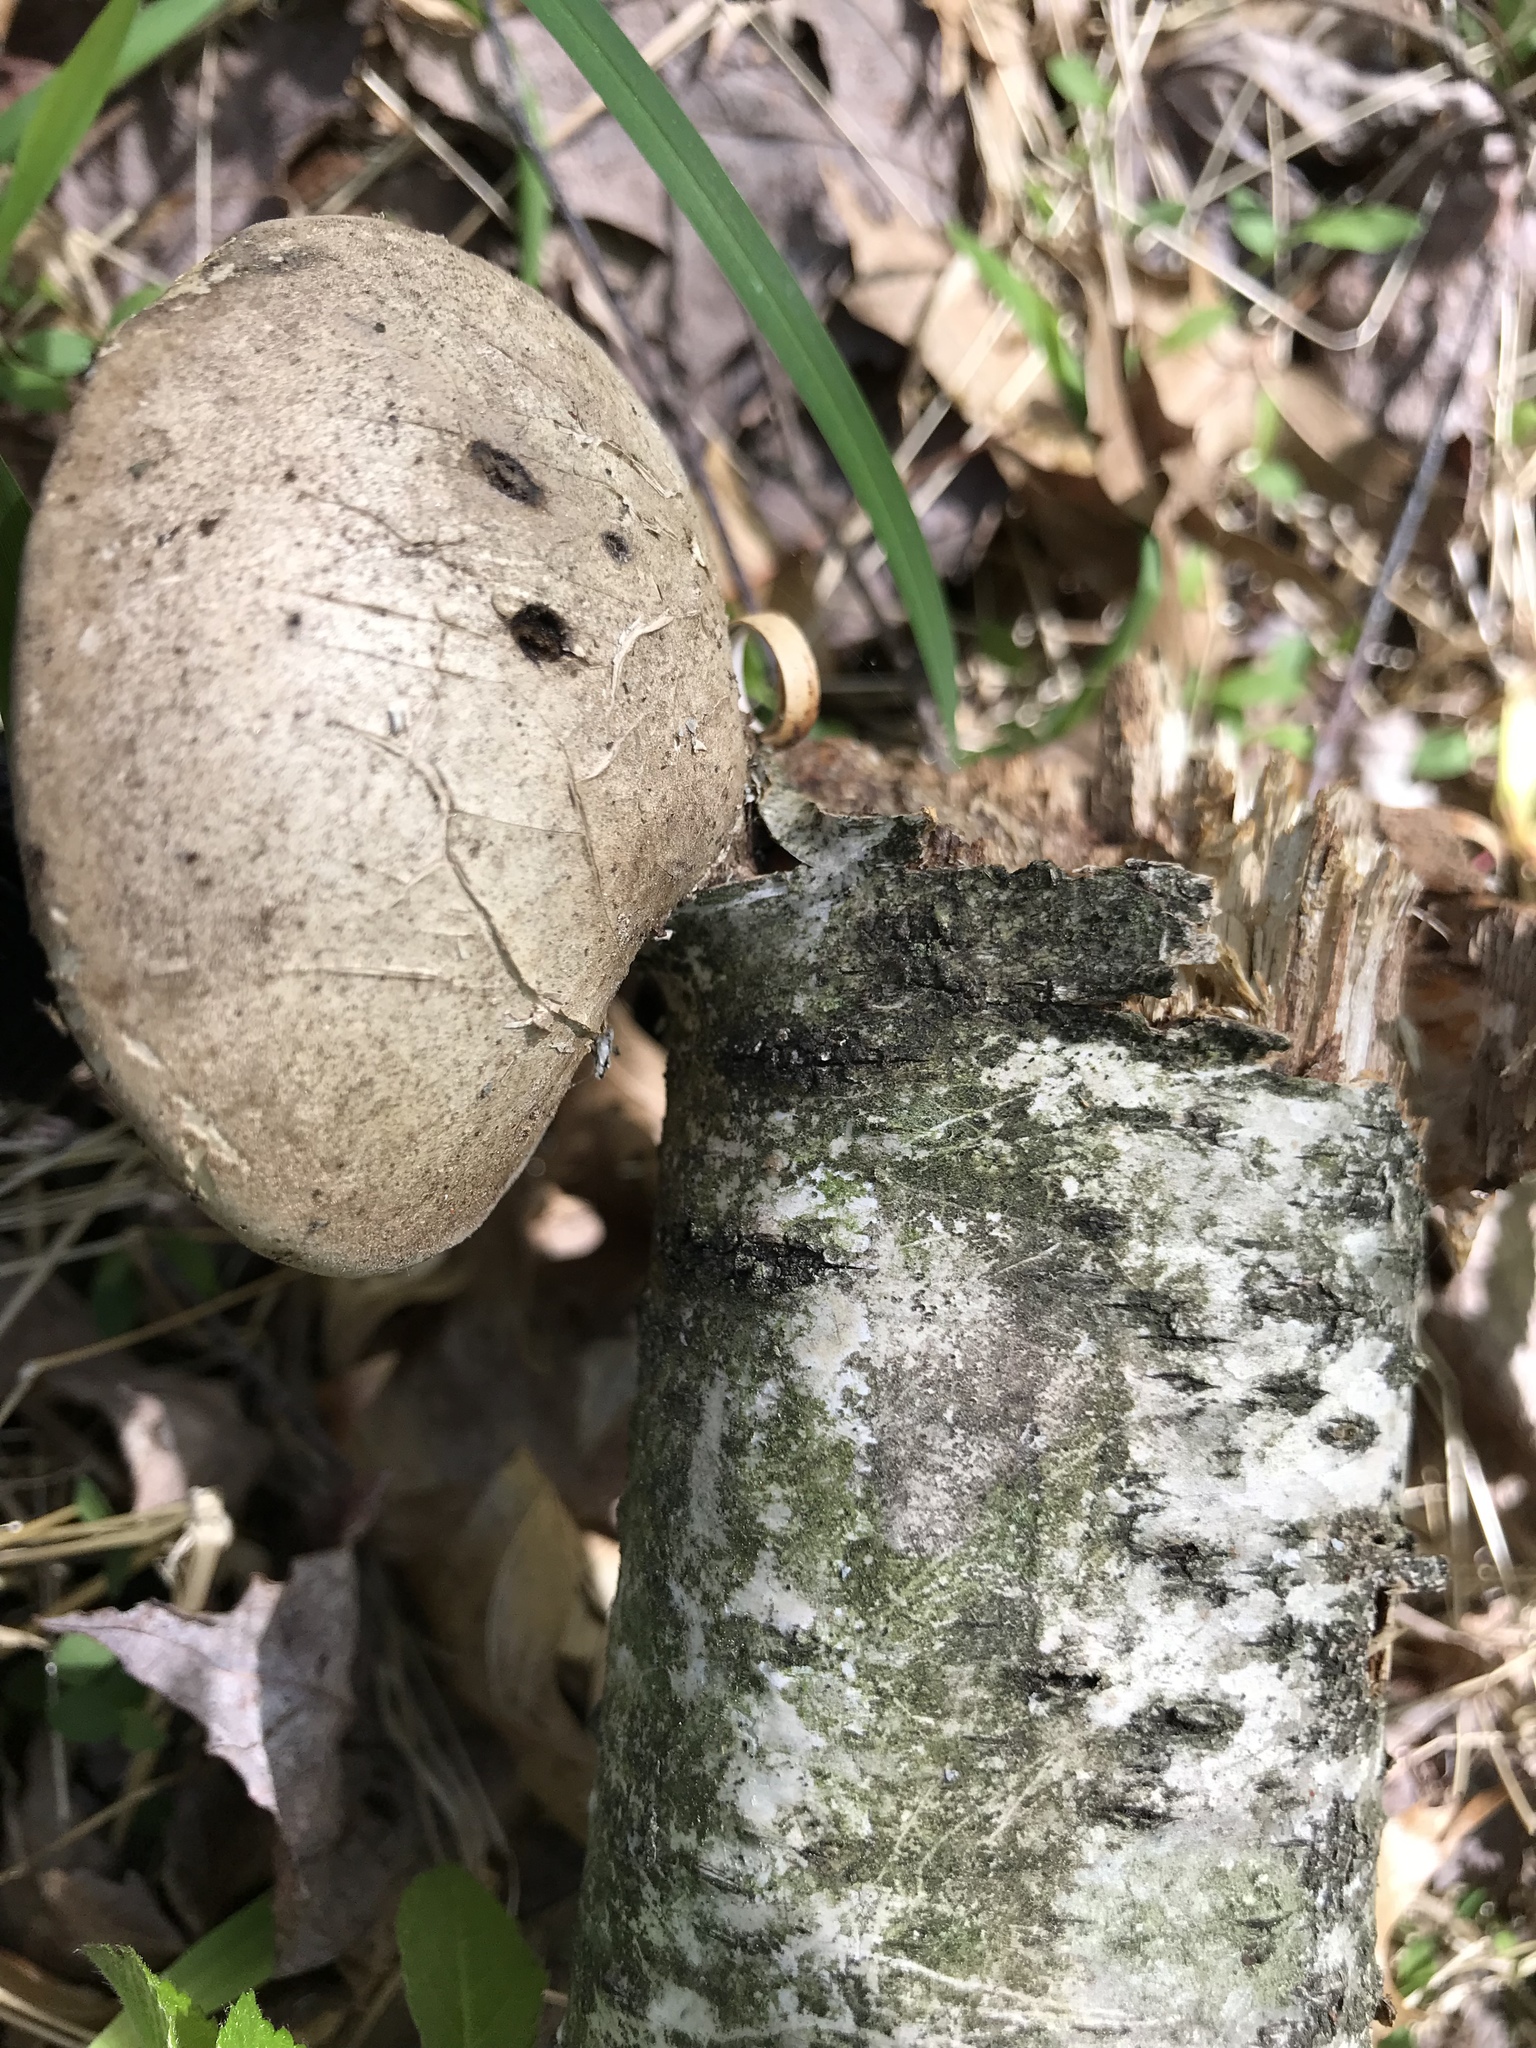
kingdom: Fungi
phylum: Basidiomycota
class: Agaricomycetes
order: Polyporales
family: Fomitopsidaceae
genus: Fomitopsis
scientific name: Fomitopsis betulina
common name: Birch polypore
